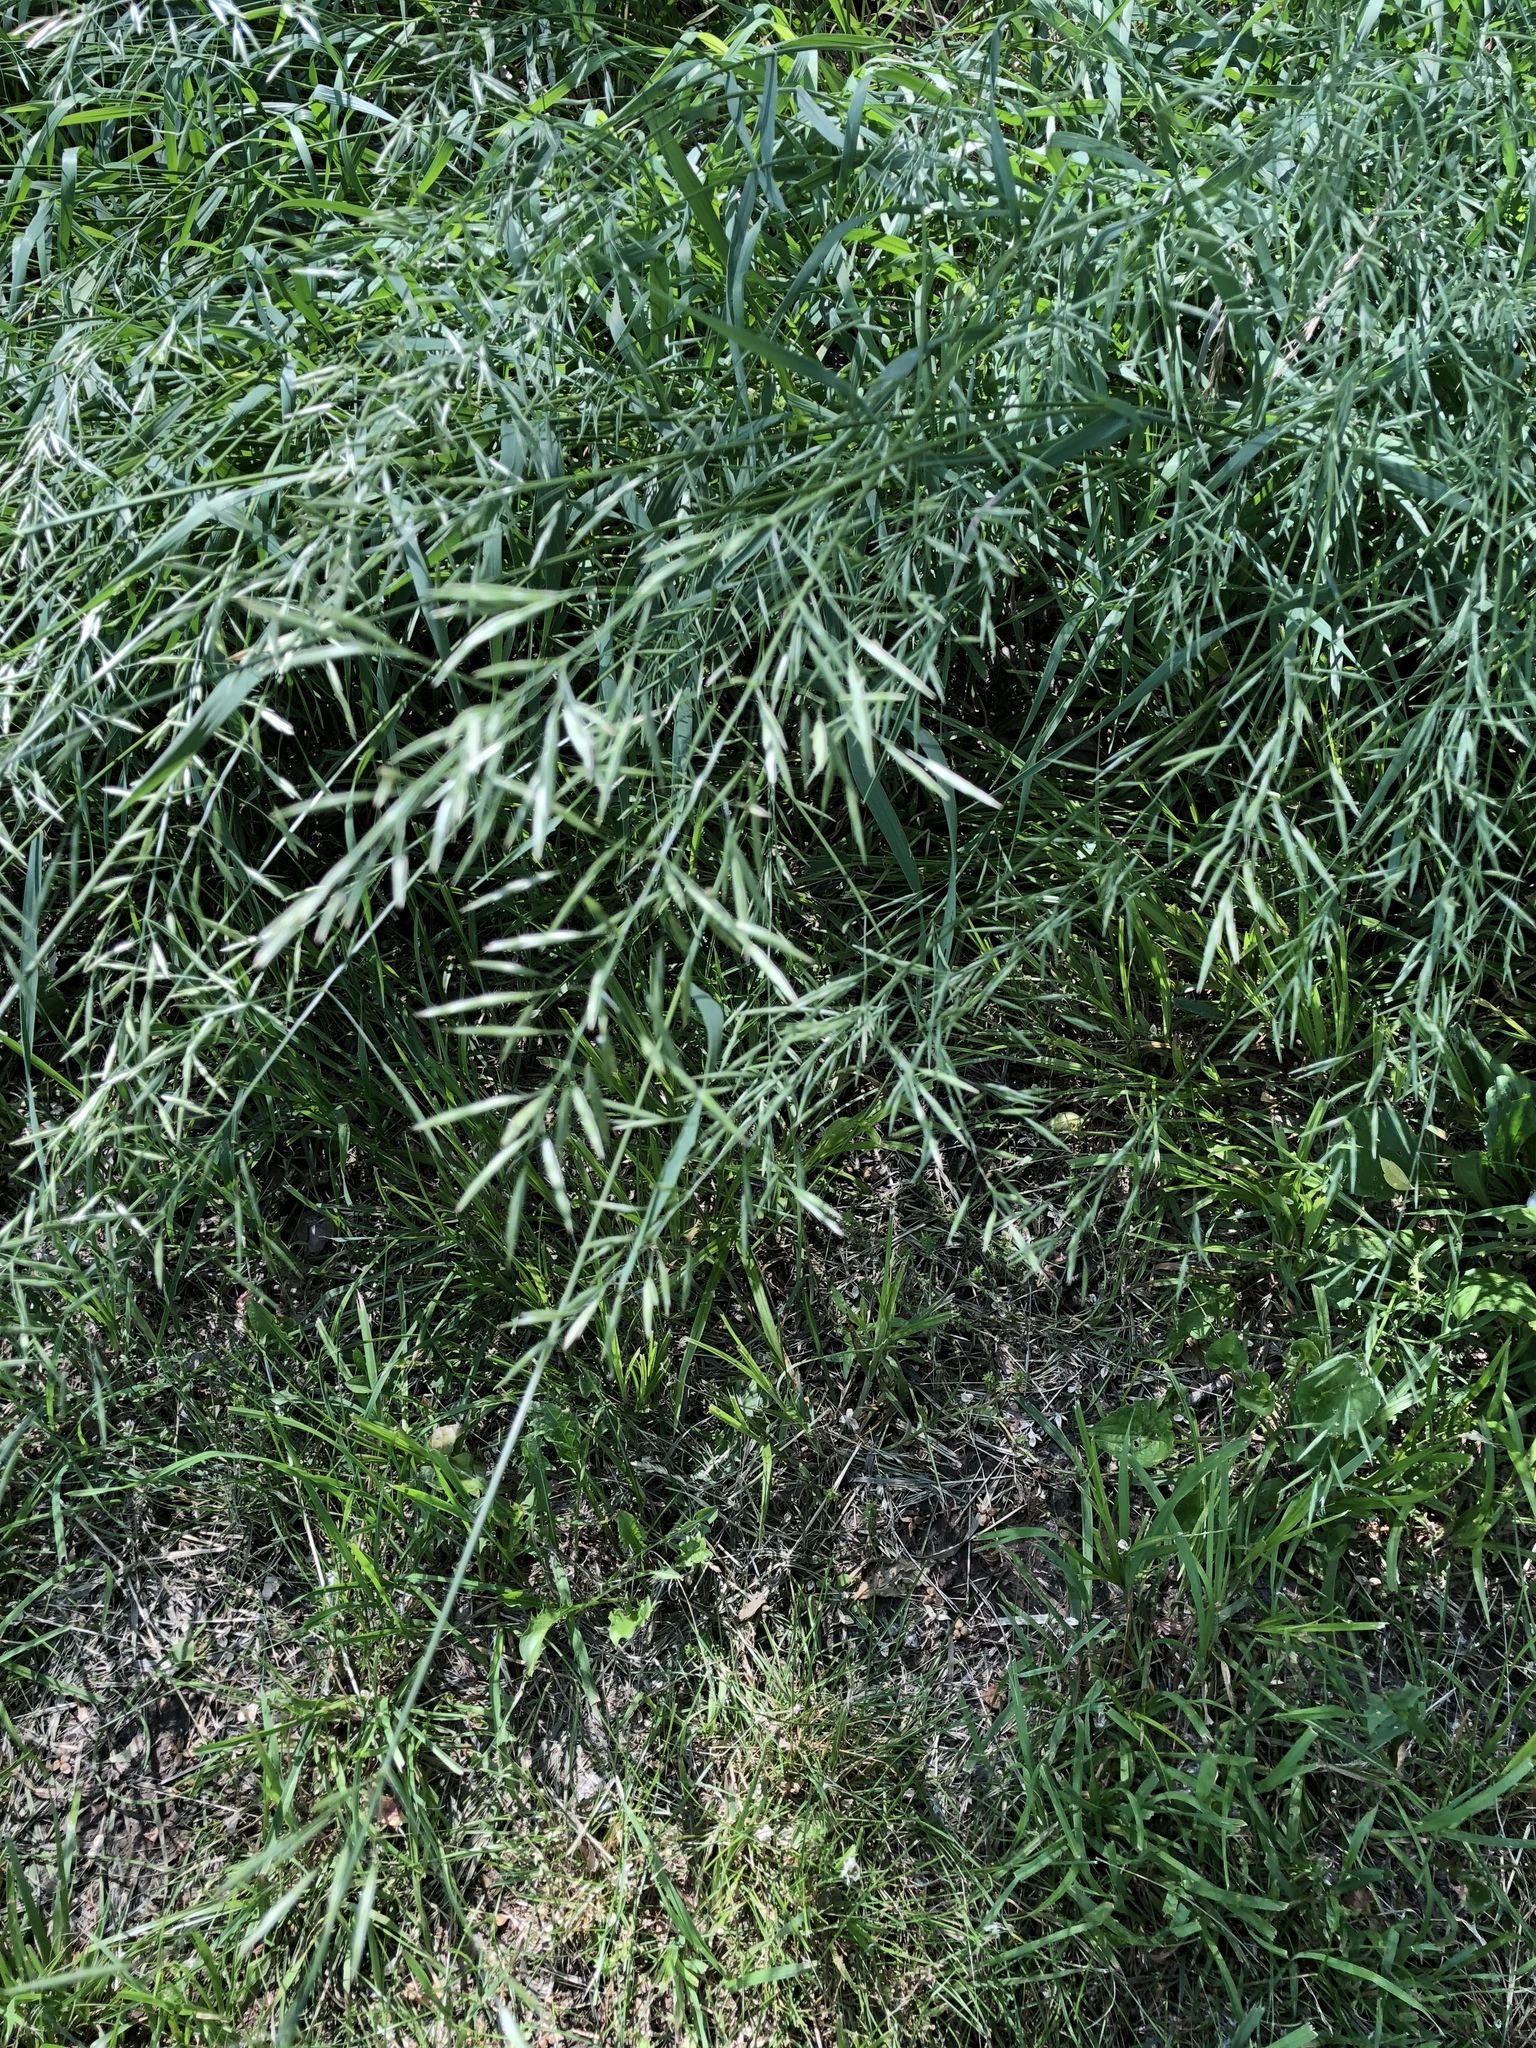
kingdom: Plantae
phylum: Tracheophyta
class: Liliopsida
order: Poales
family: Poaceae
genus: Bromus
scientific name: Bromus inermis
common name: Smooth brome
